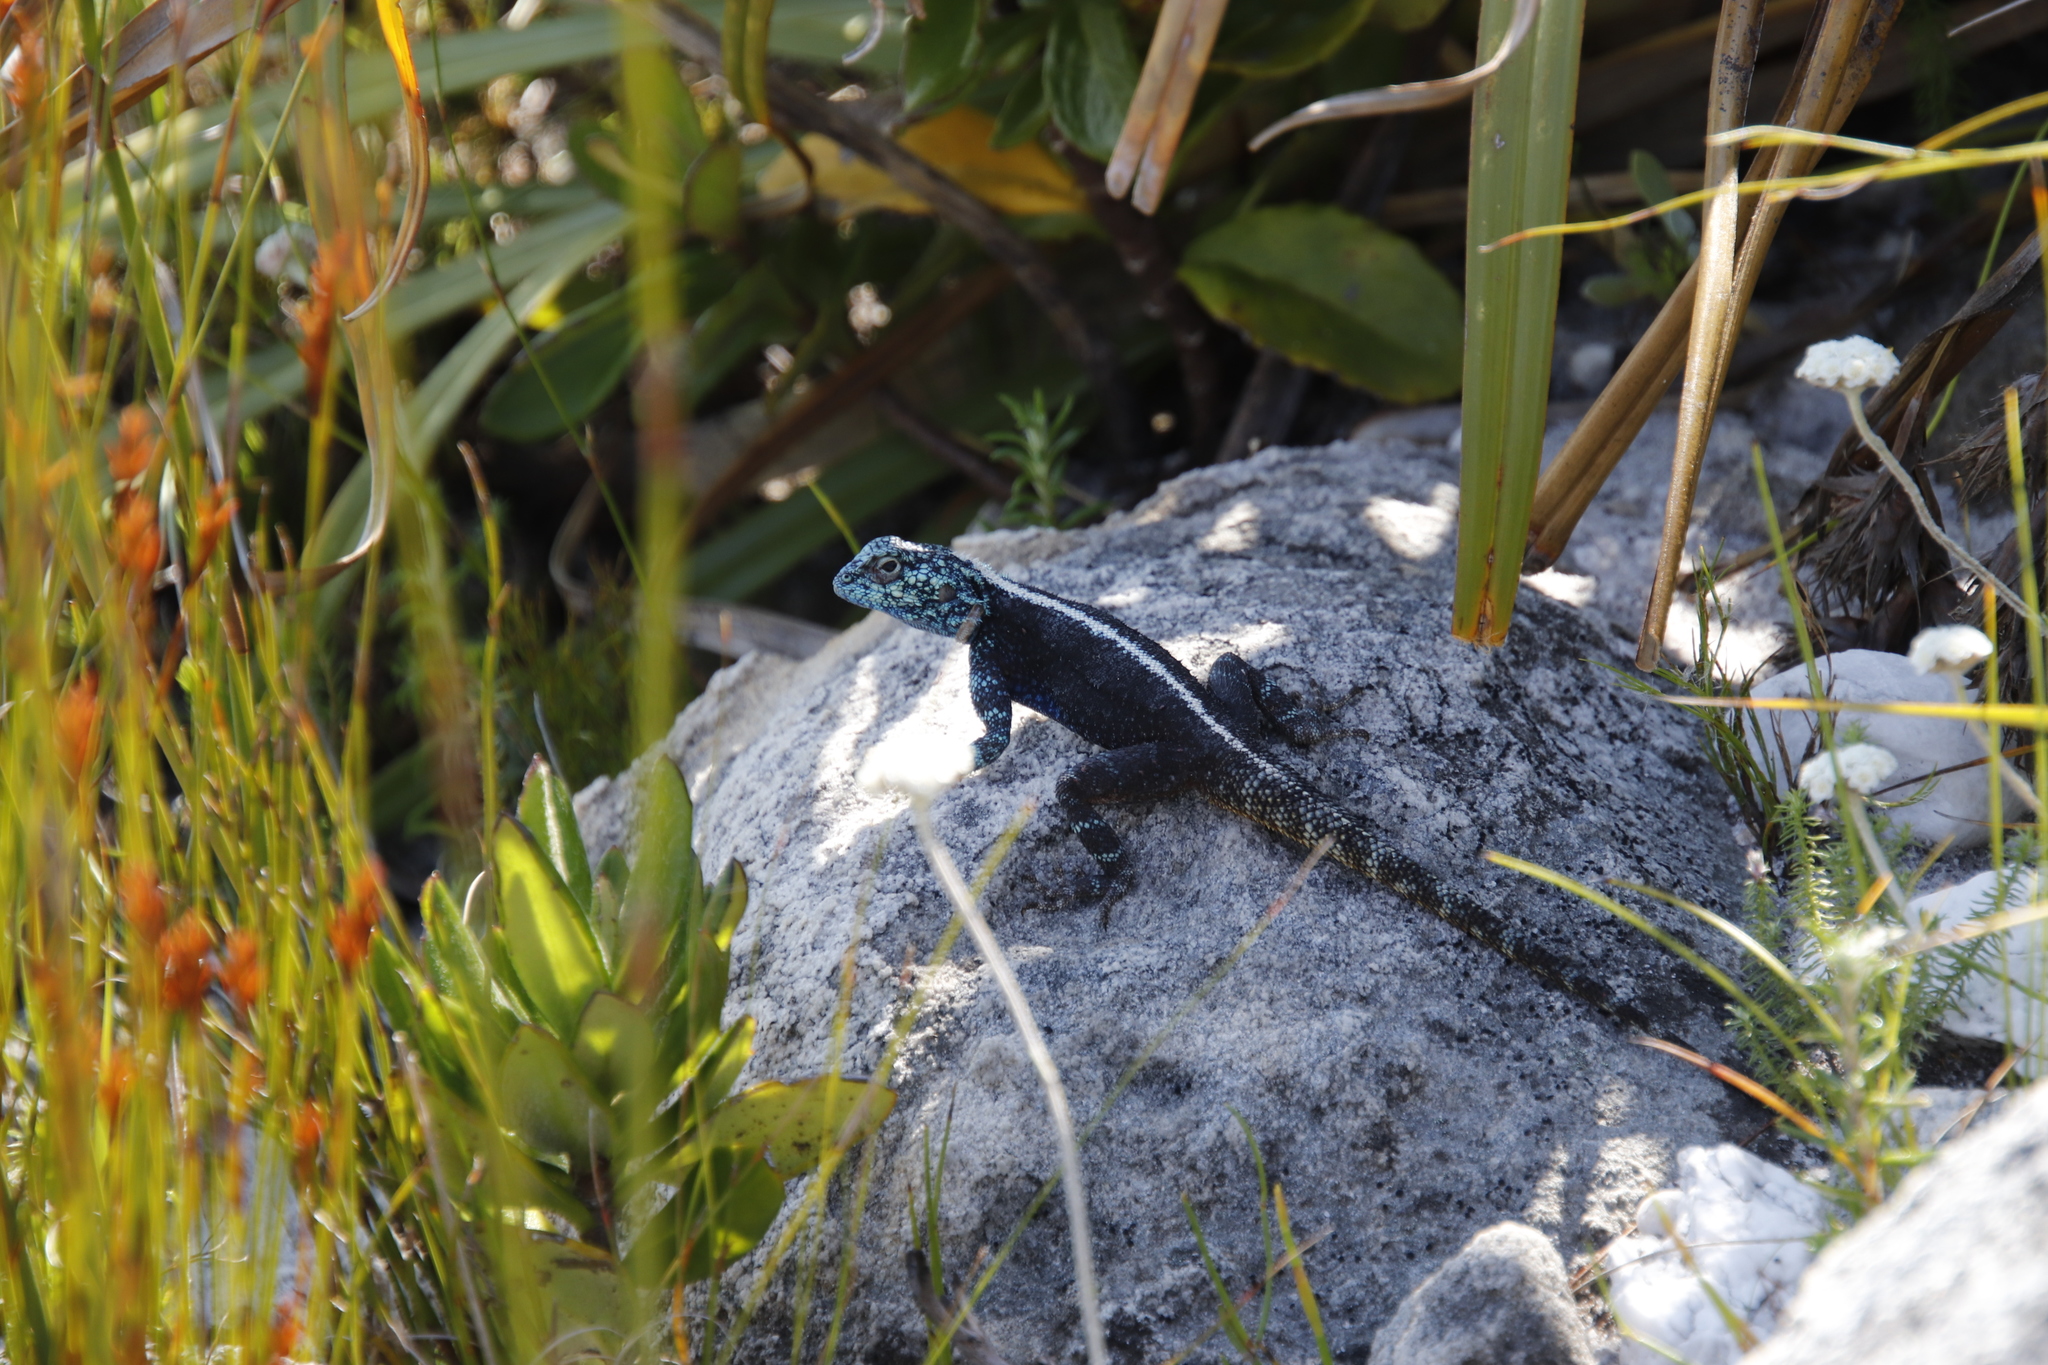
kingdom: Animalia
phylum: Chordata
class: Squamata
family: Agamidae
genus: Agama
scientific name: Agama atra
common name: Southern african rock agama
